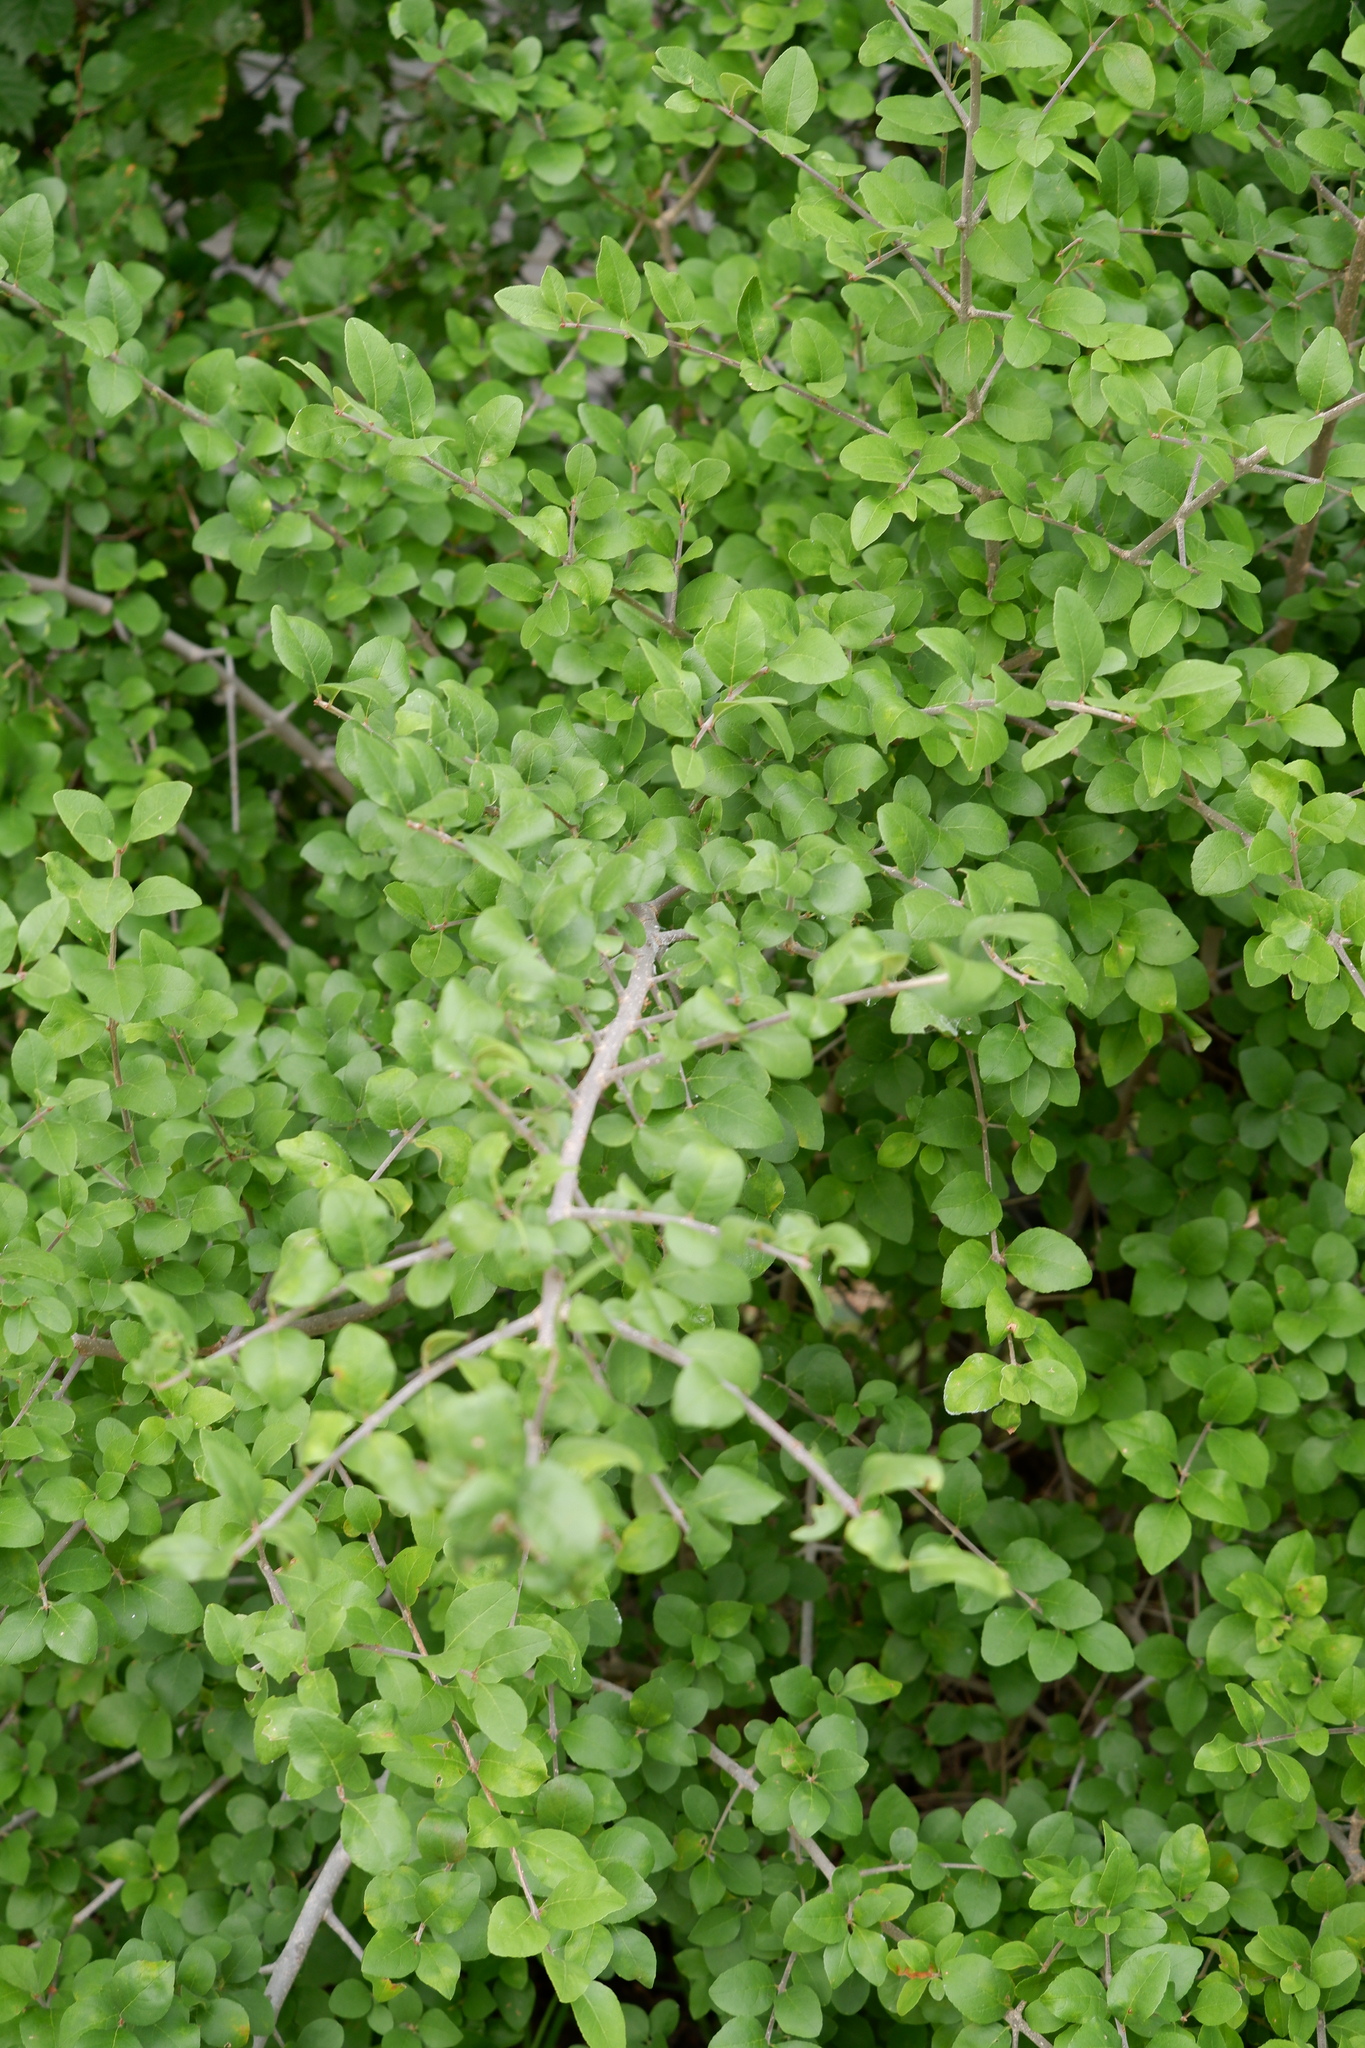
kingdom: Plantae
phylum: Tracheophyta
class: Magnoliopsida
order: Lamiales
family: Oleaceae
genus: Forestiera
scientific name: Forestiera pubescens
